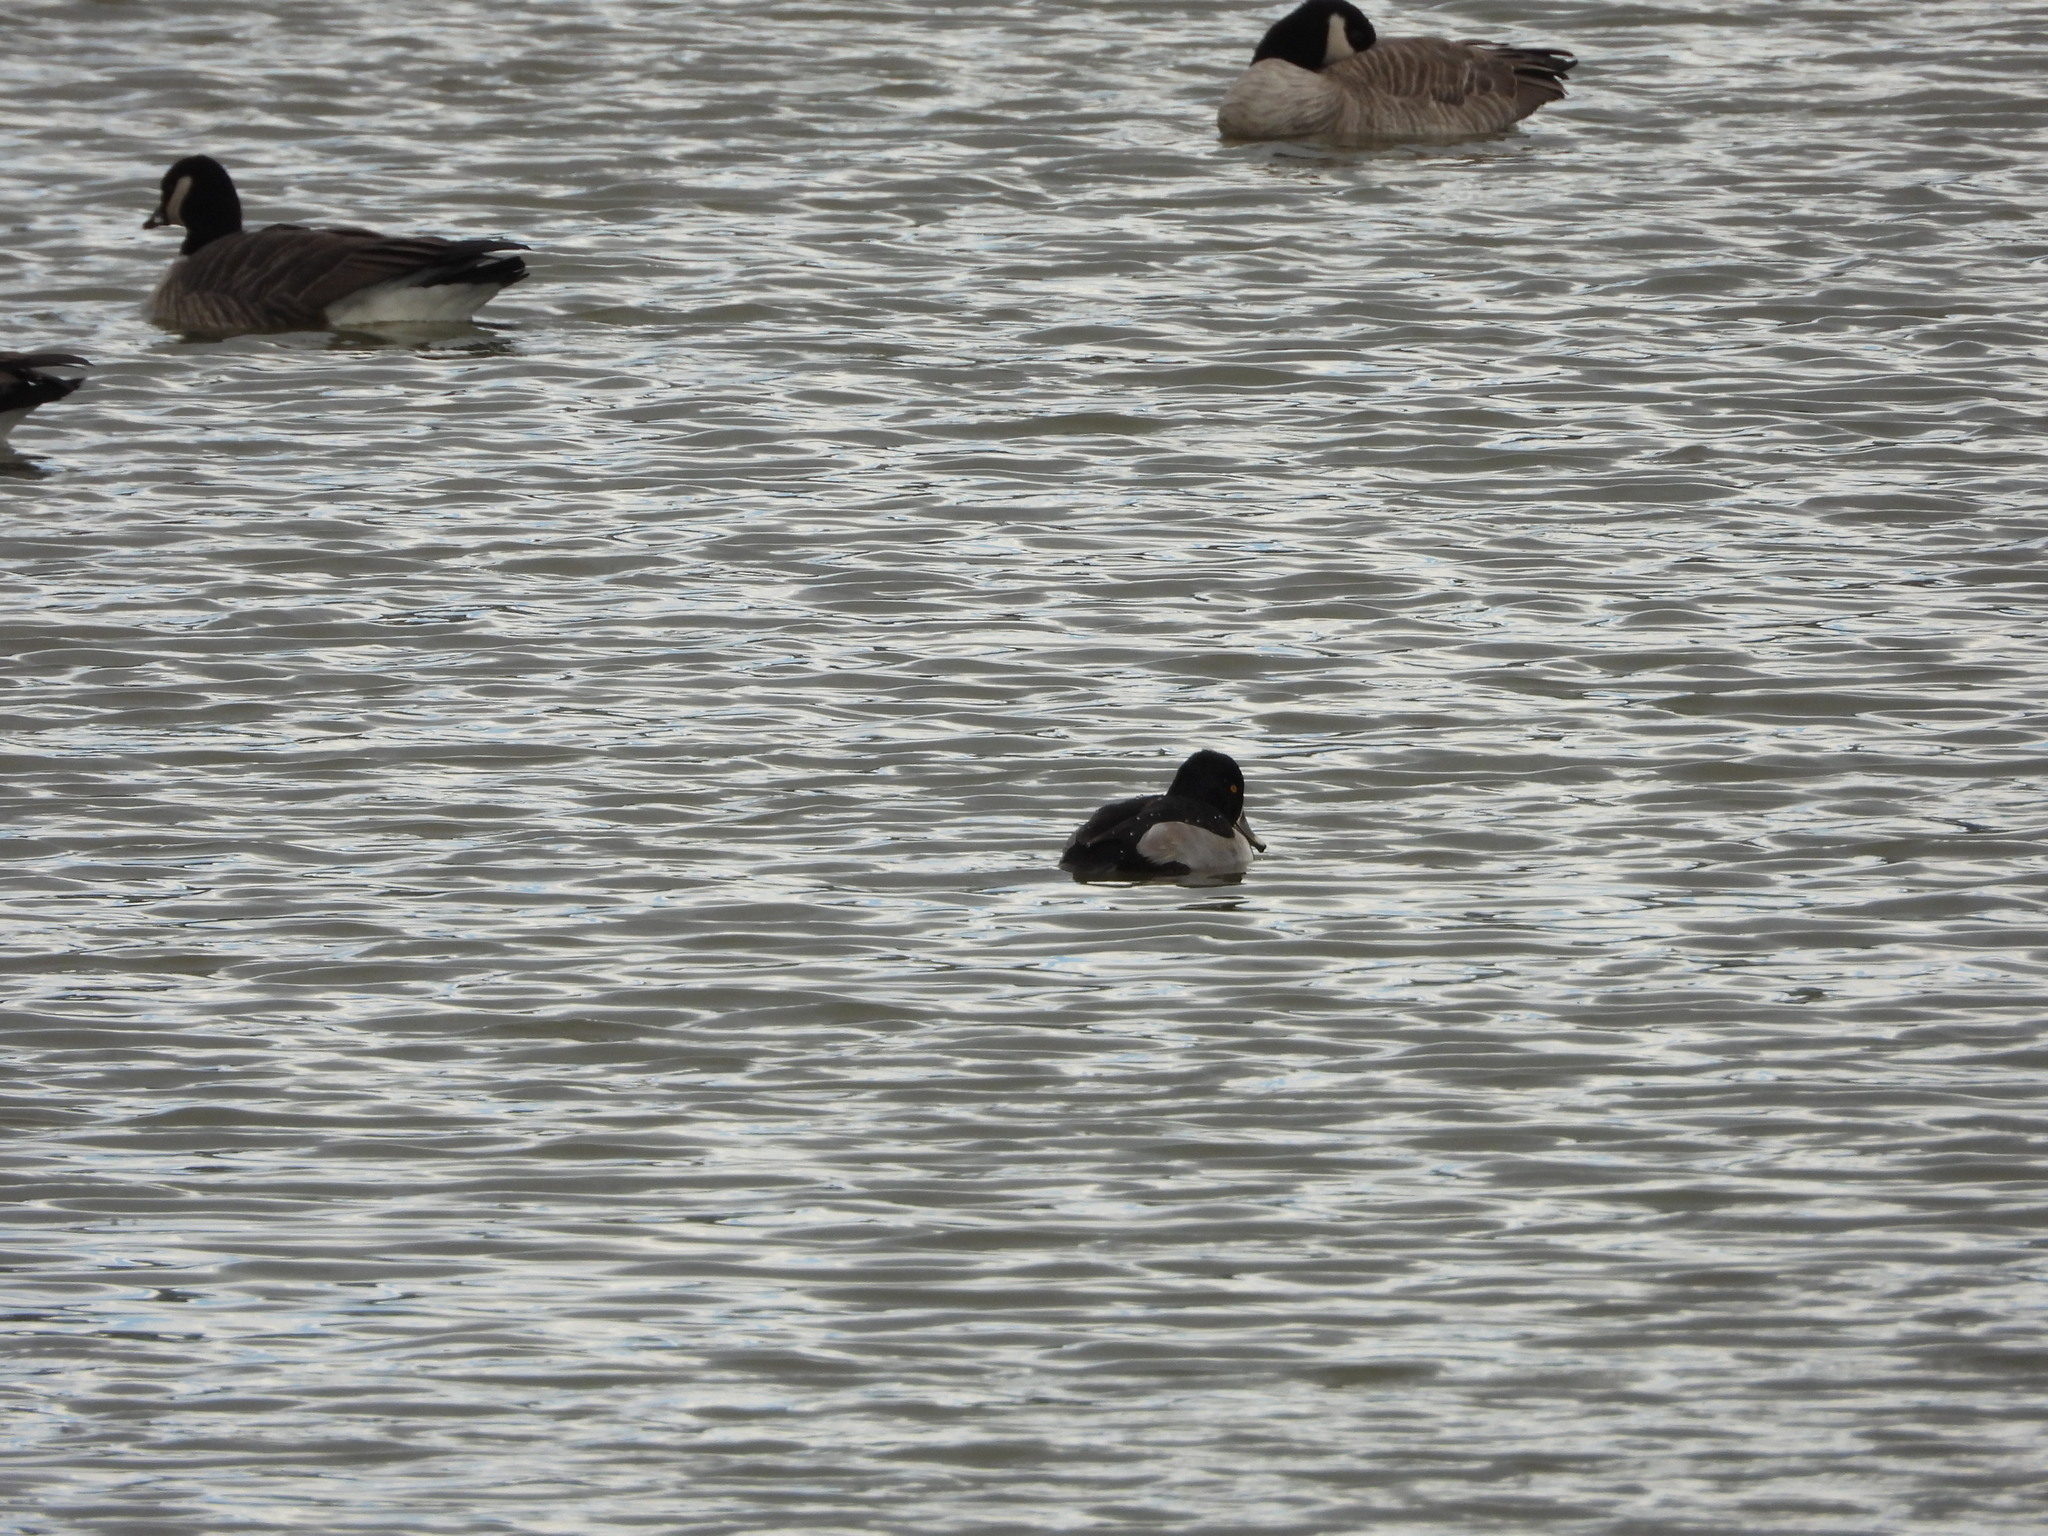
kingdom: Animalia
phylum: Chordata
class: Aves
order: Anseriformes
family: Anatidae
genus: Aythya
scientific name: Aythya collaris
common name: Ring-necked duck
